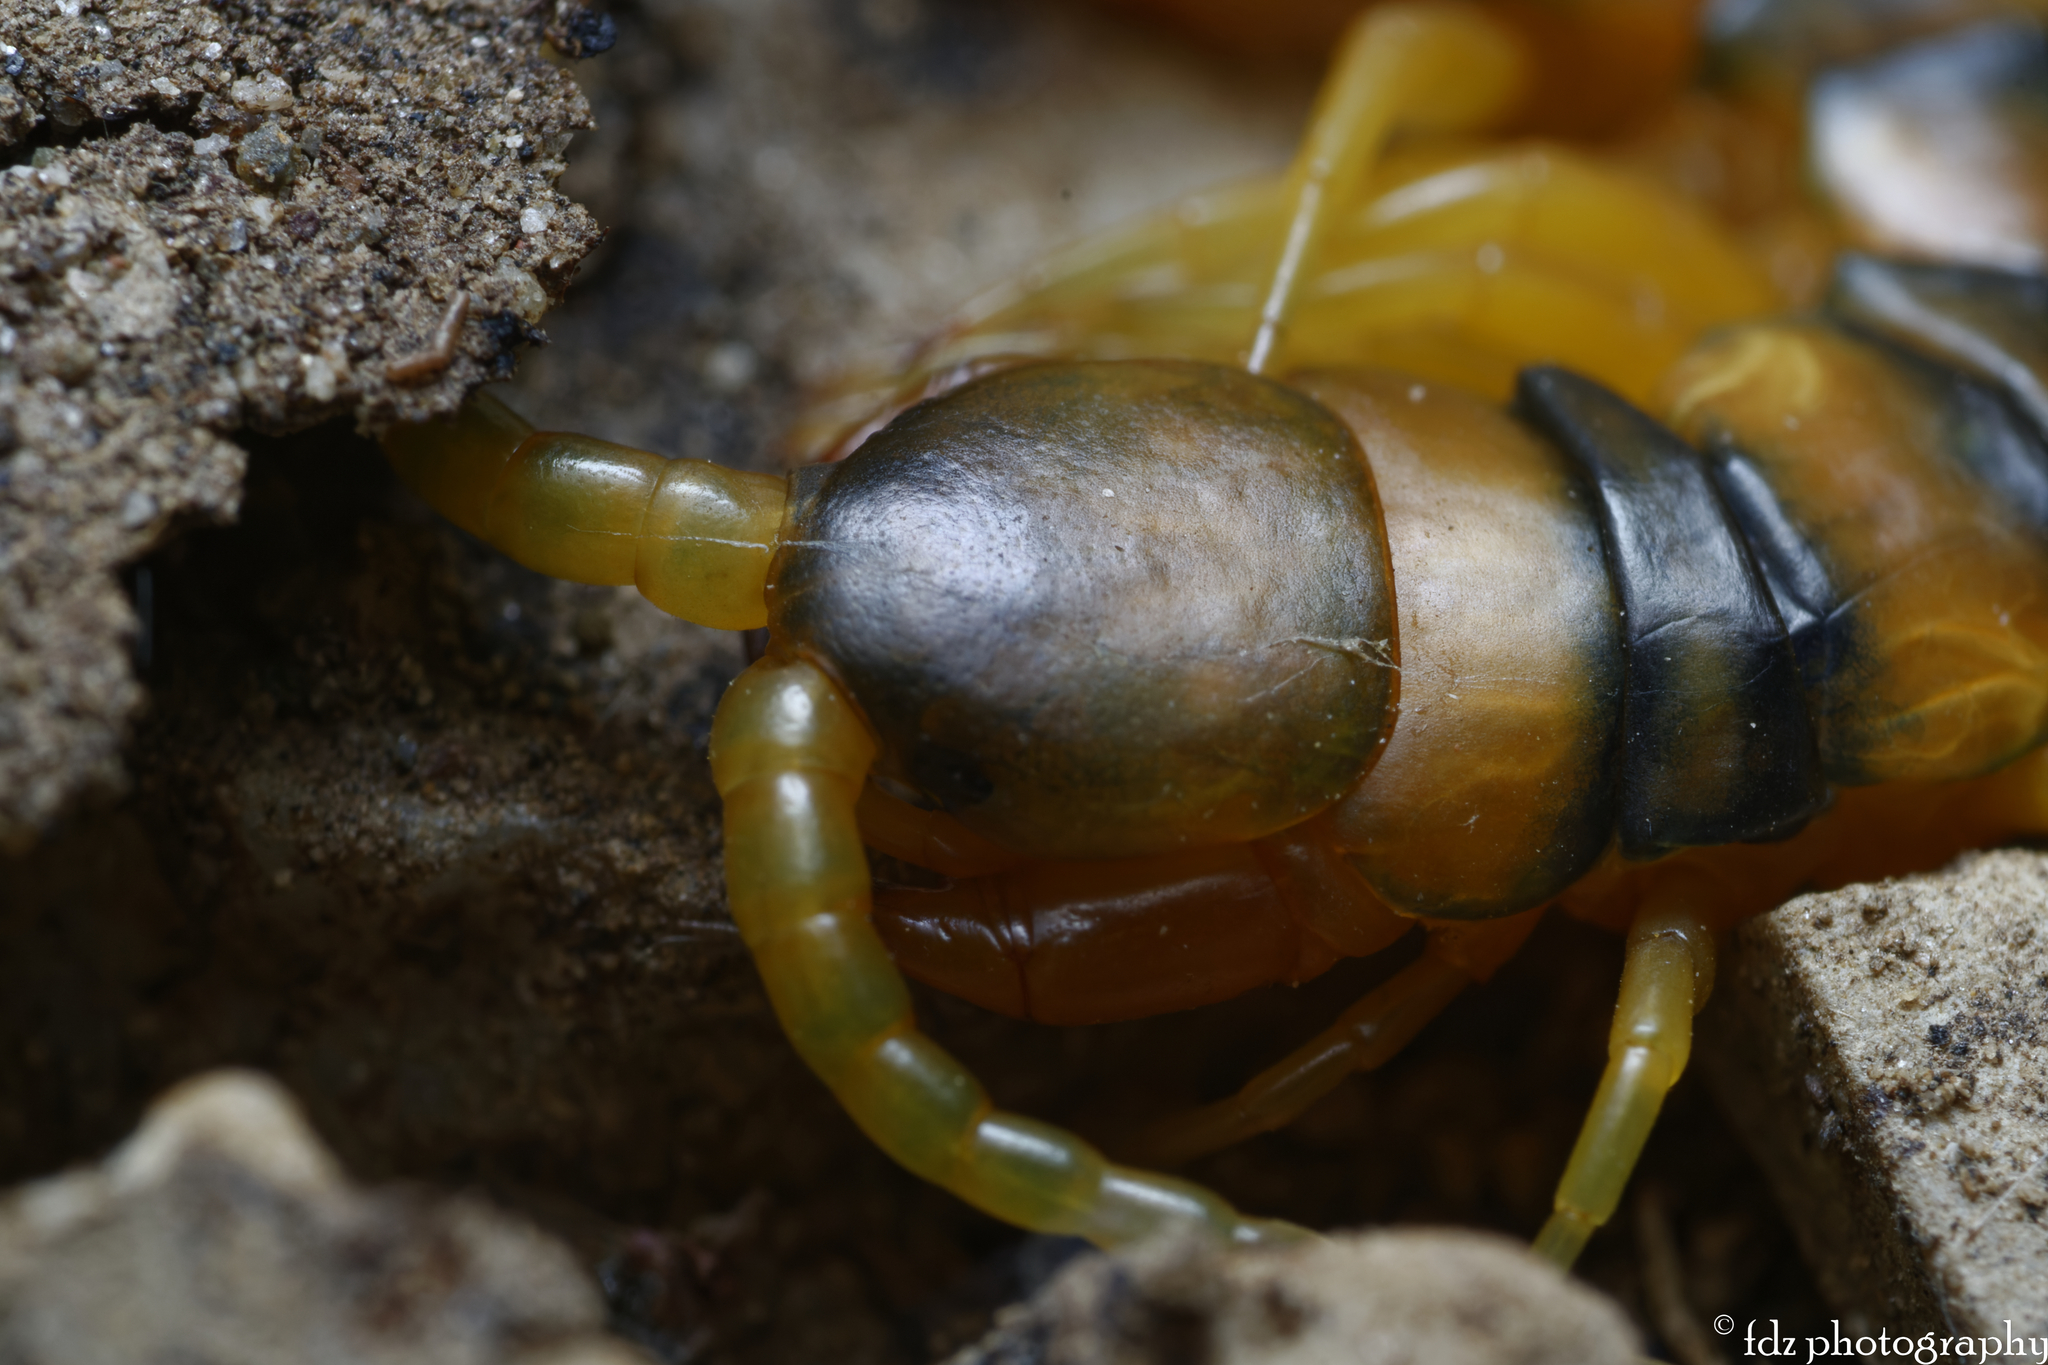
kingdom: Animalia
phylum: Arthropoda
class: Chilopoda
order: Scolopendromorpha
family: Scolopendridae
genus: Scolopendra
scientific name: Scolopendra cingulata
